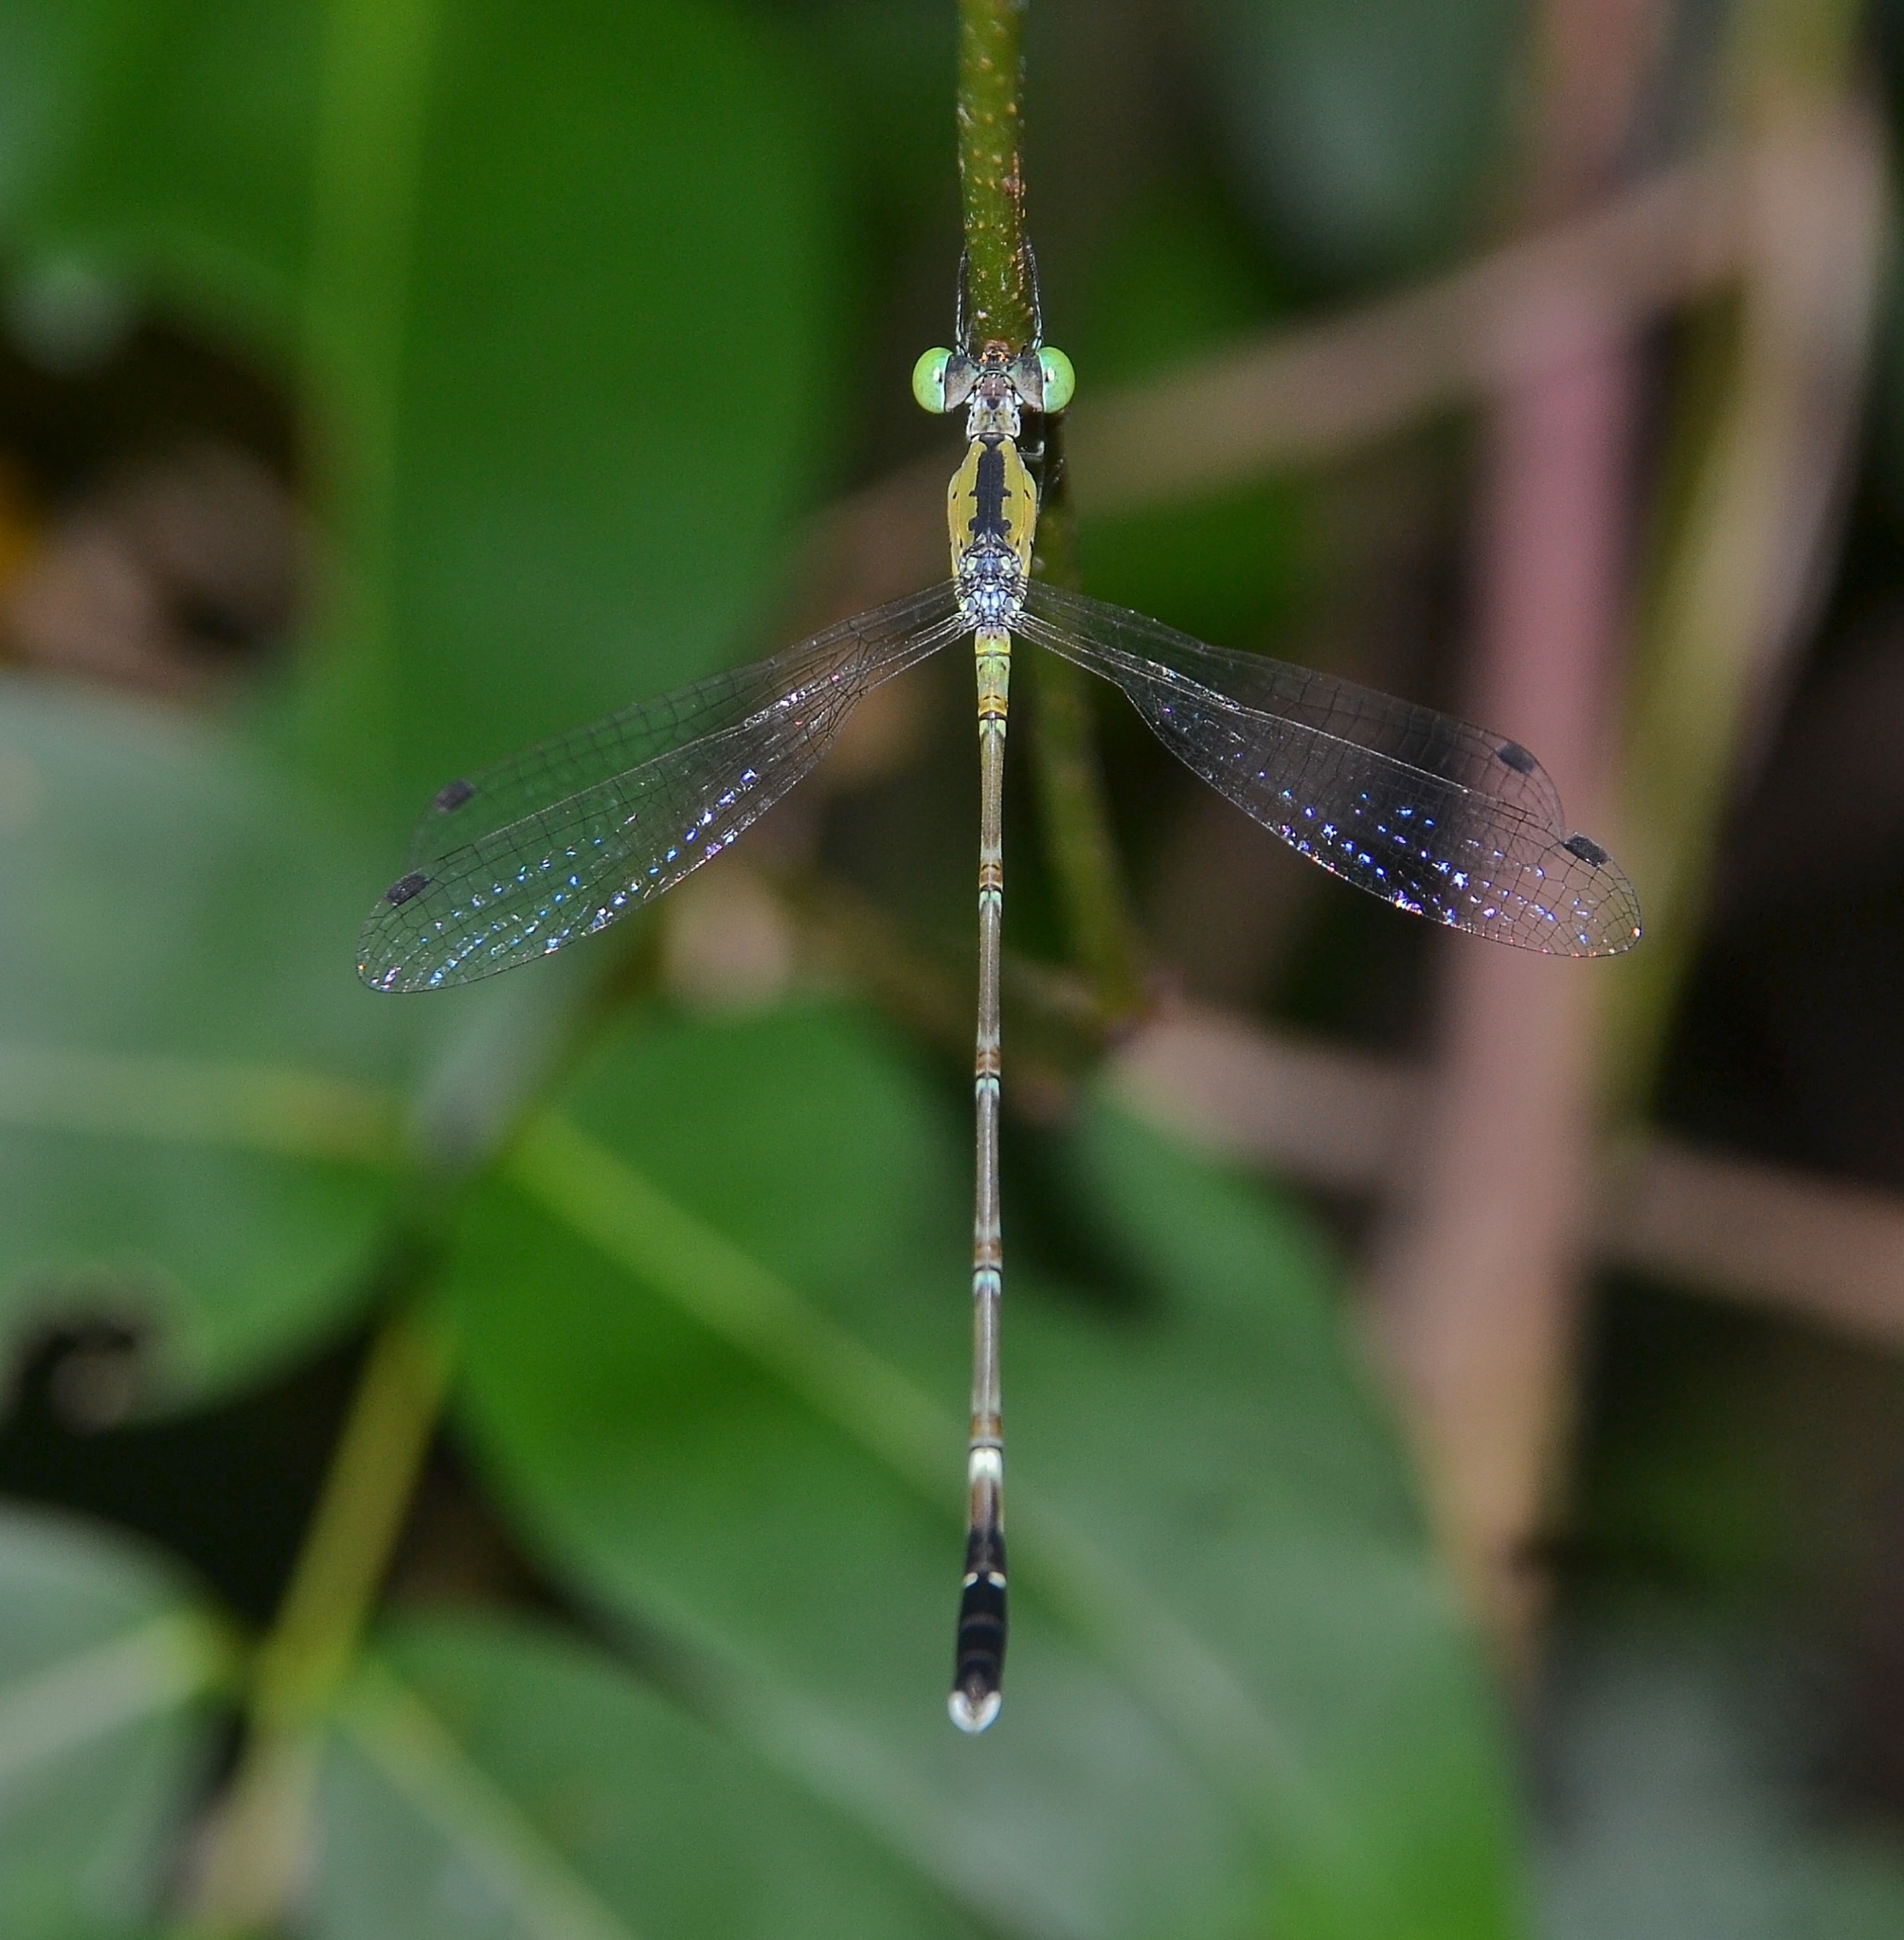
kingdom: Animalia
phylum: Arthropoda
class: Insecta
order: Odonata
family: Lestidae
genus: Platylestes
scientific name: Platylestes kirani
